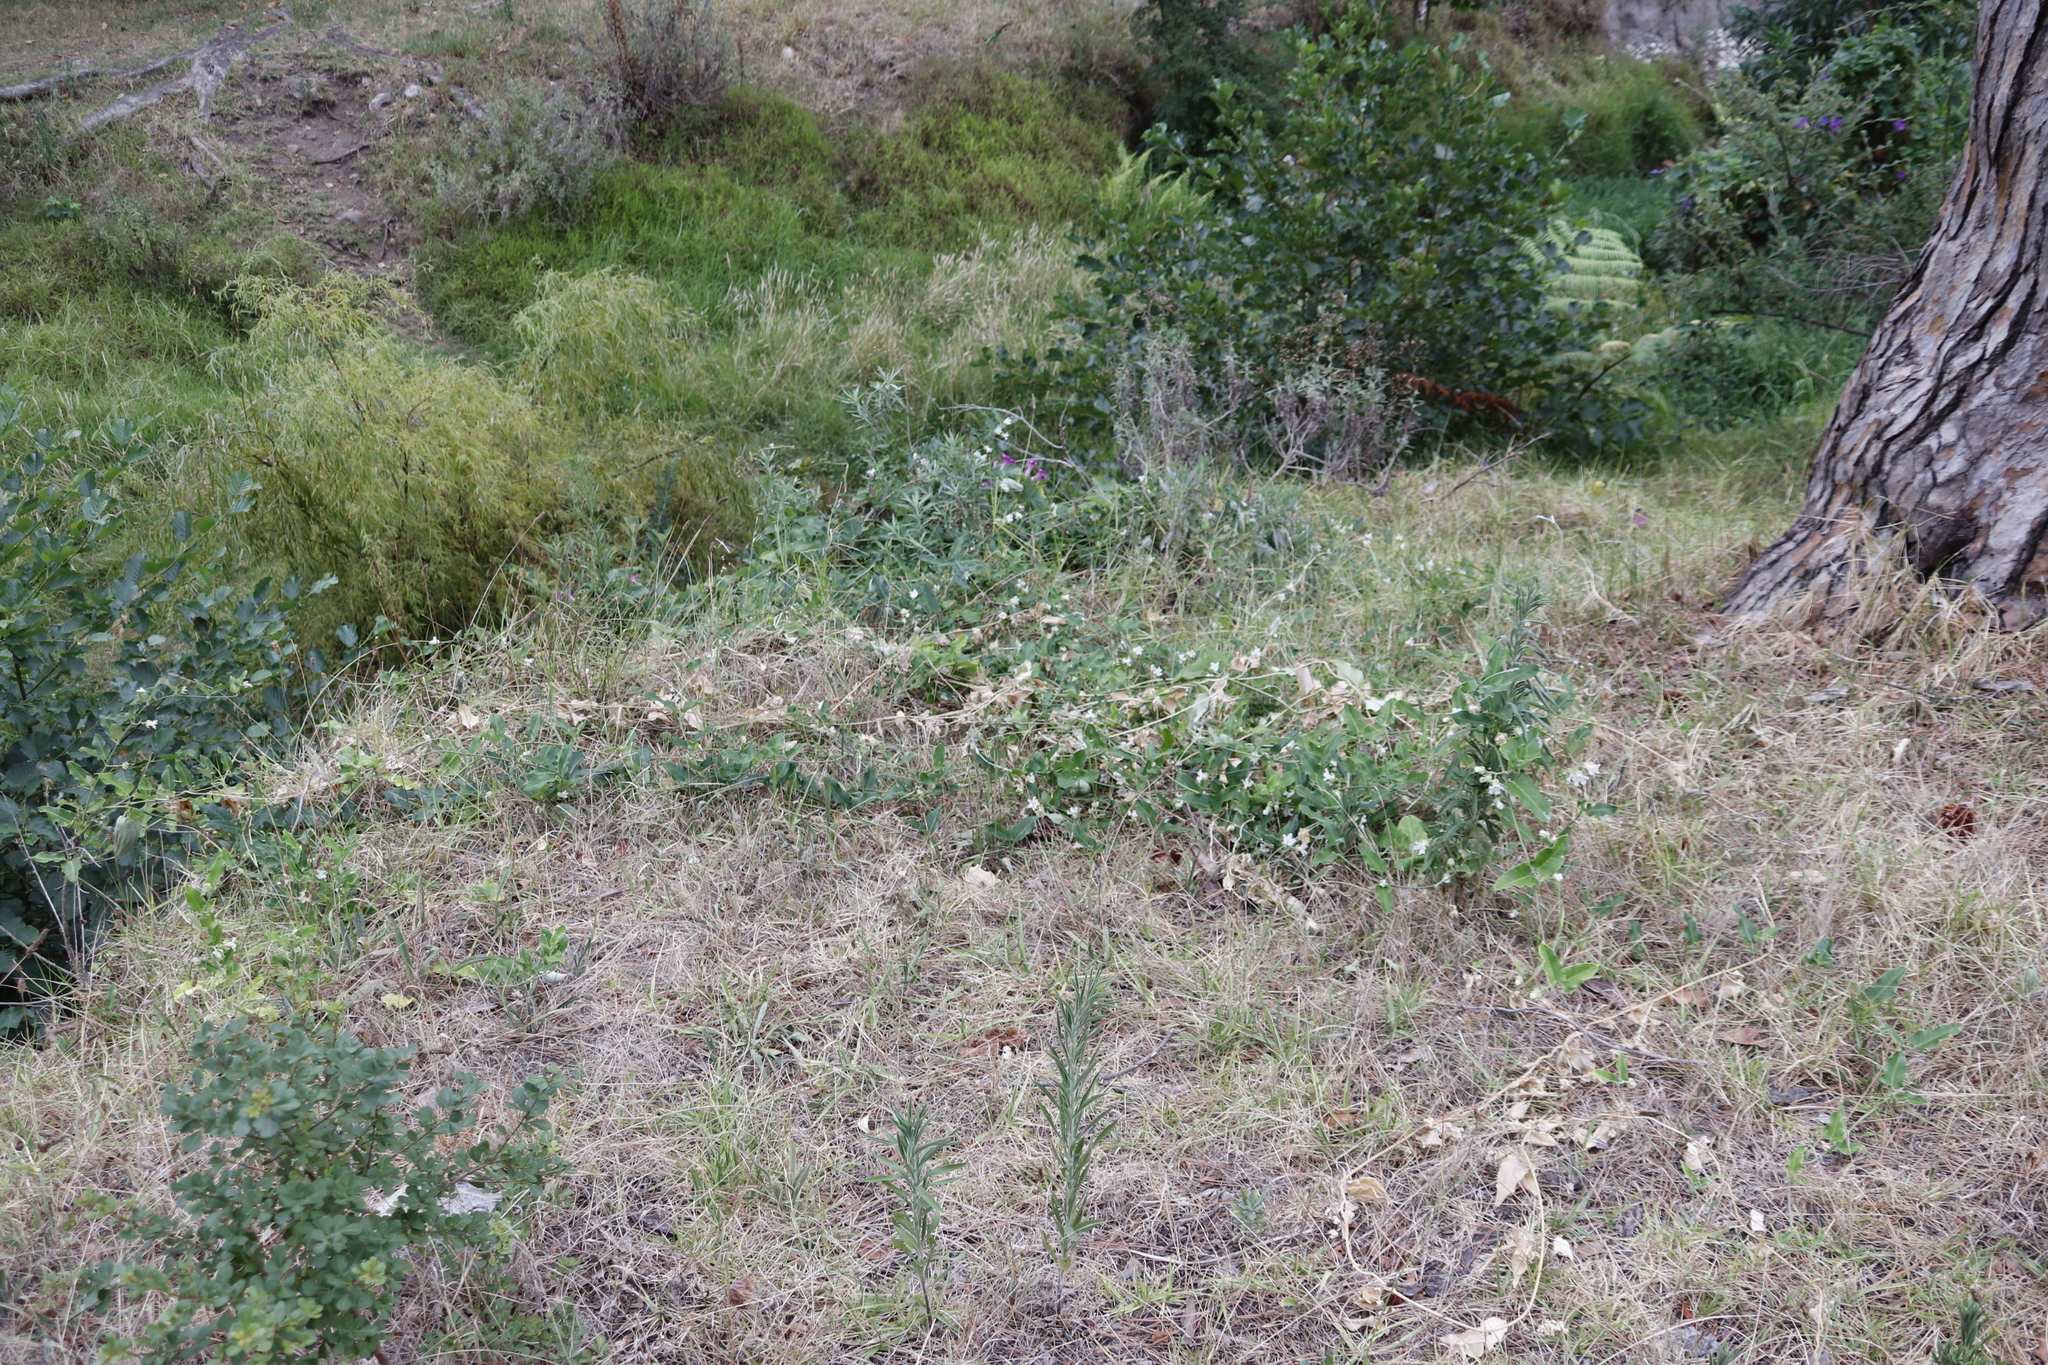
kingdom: Plantae
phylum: Tracheophyta
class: Magnoliopsida
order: Gentianales
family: Apocynaceae
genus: Araujia
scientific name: Araujia sericifera
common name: White bladderflower
